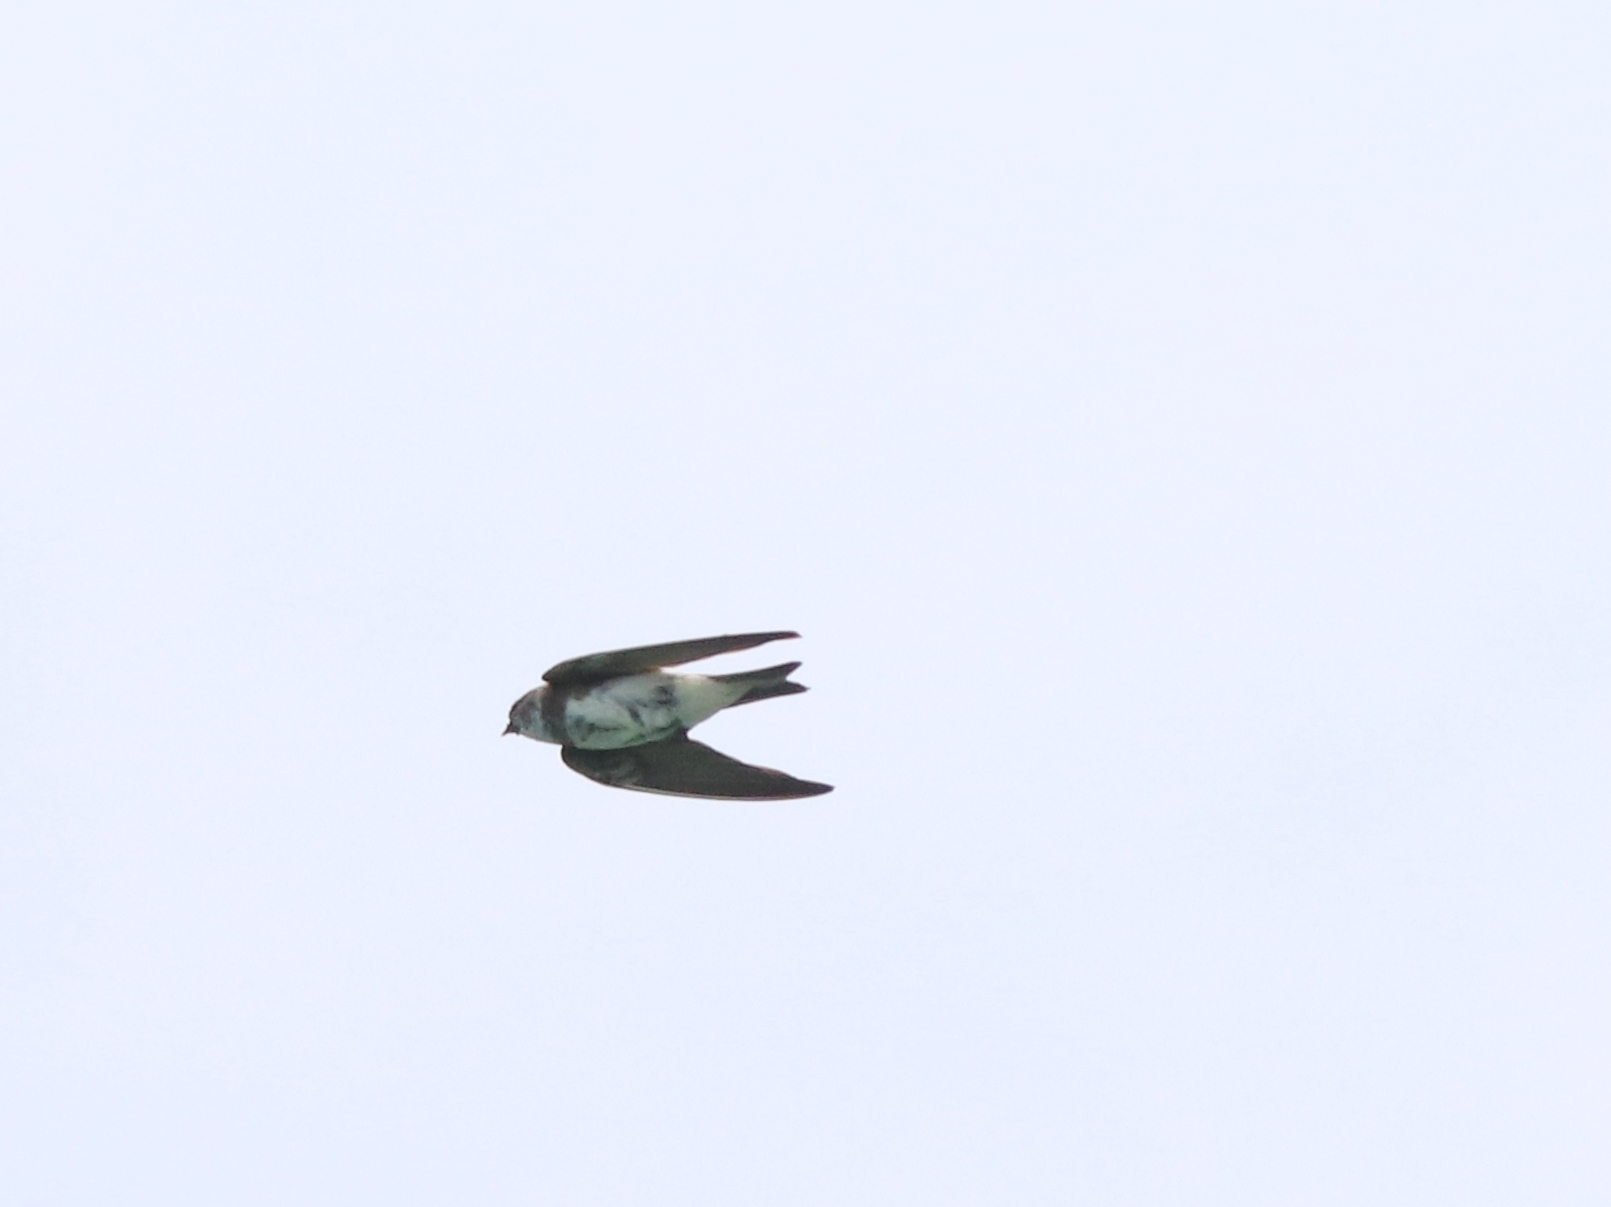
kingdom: Animalia
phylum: Chordata
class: Aves
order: Passeriformes
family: Hirundinidae
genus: Riparia
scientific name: Riparia riparia
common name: Sand martin
